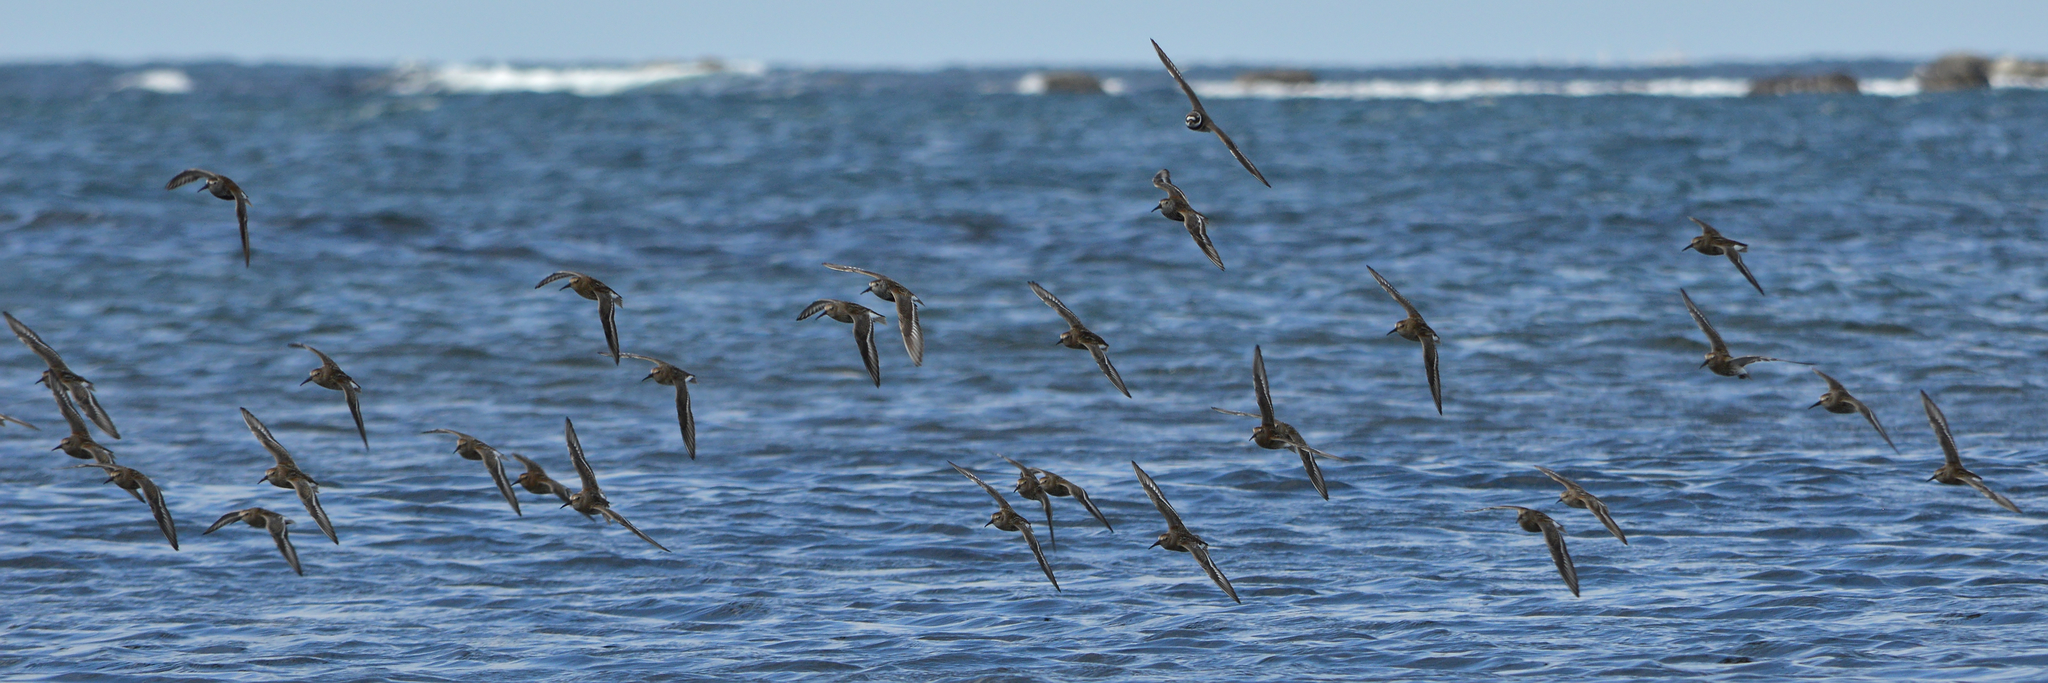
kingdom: Animalia
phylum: Chordata
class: Aves
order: Charadriiformes
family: Scolopacidae
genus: Calidris
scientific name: Calidris alpina
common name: Dunlin
